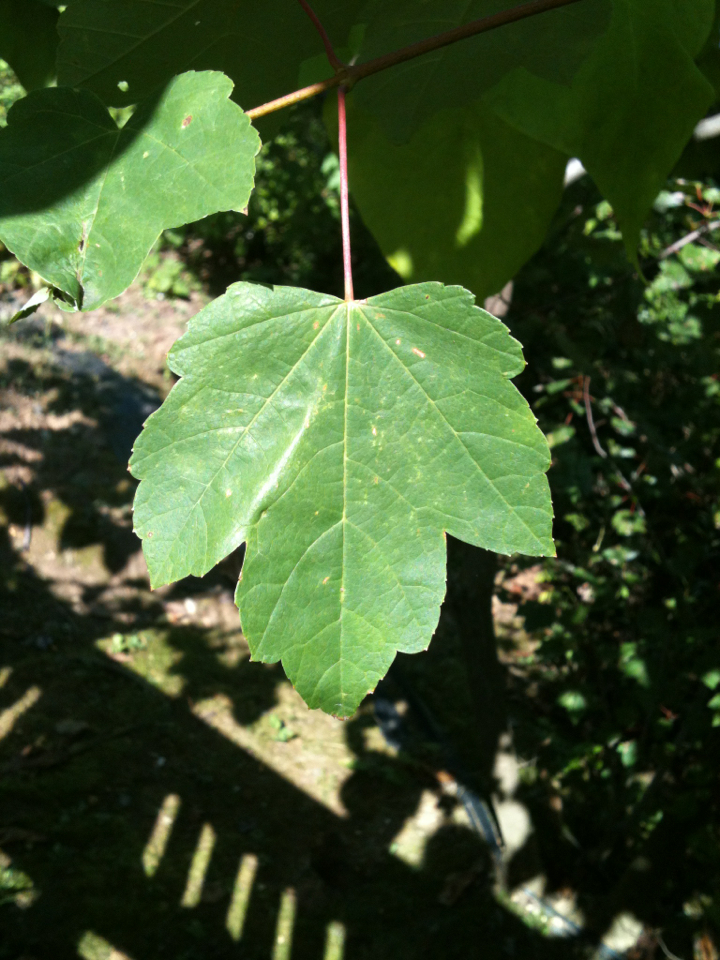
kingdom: Plantae
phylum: Tracheophyta
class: Magnoliopsida
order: Sapindales
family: Sapindaceae
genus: Acer
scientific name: Acer rubrum
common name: Red maple
